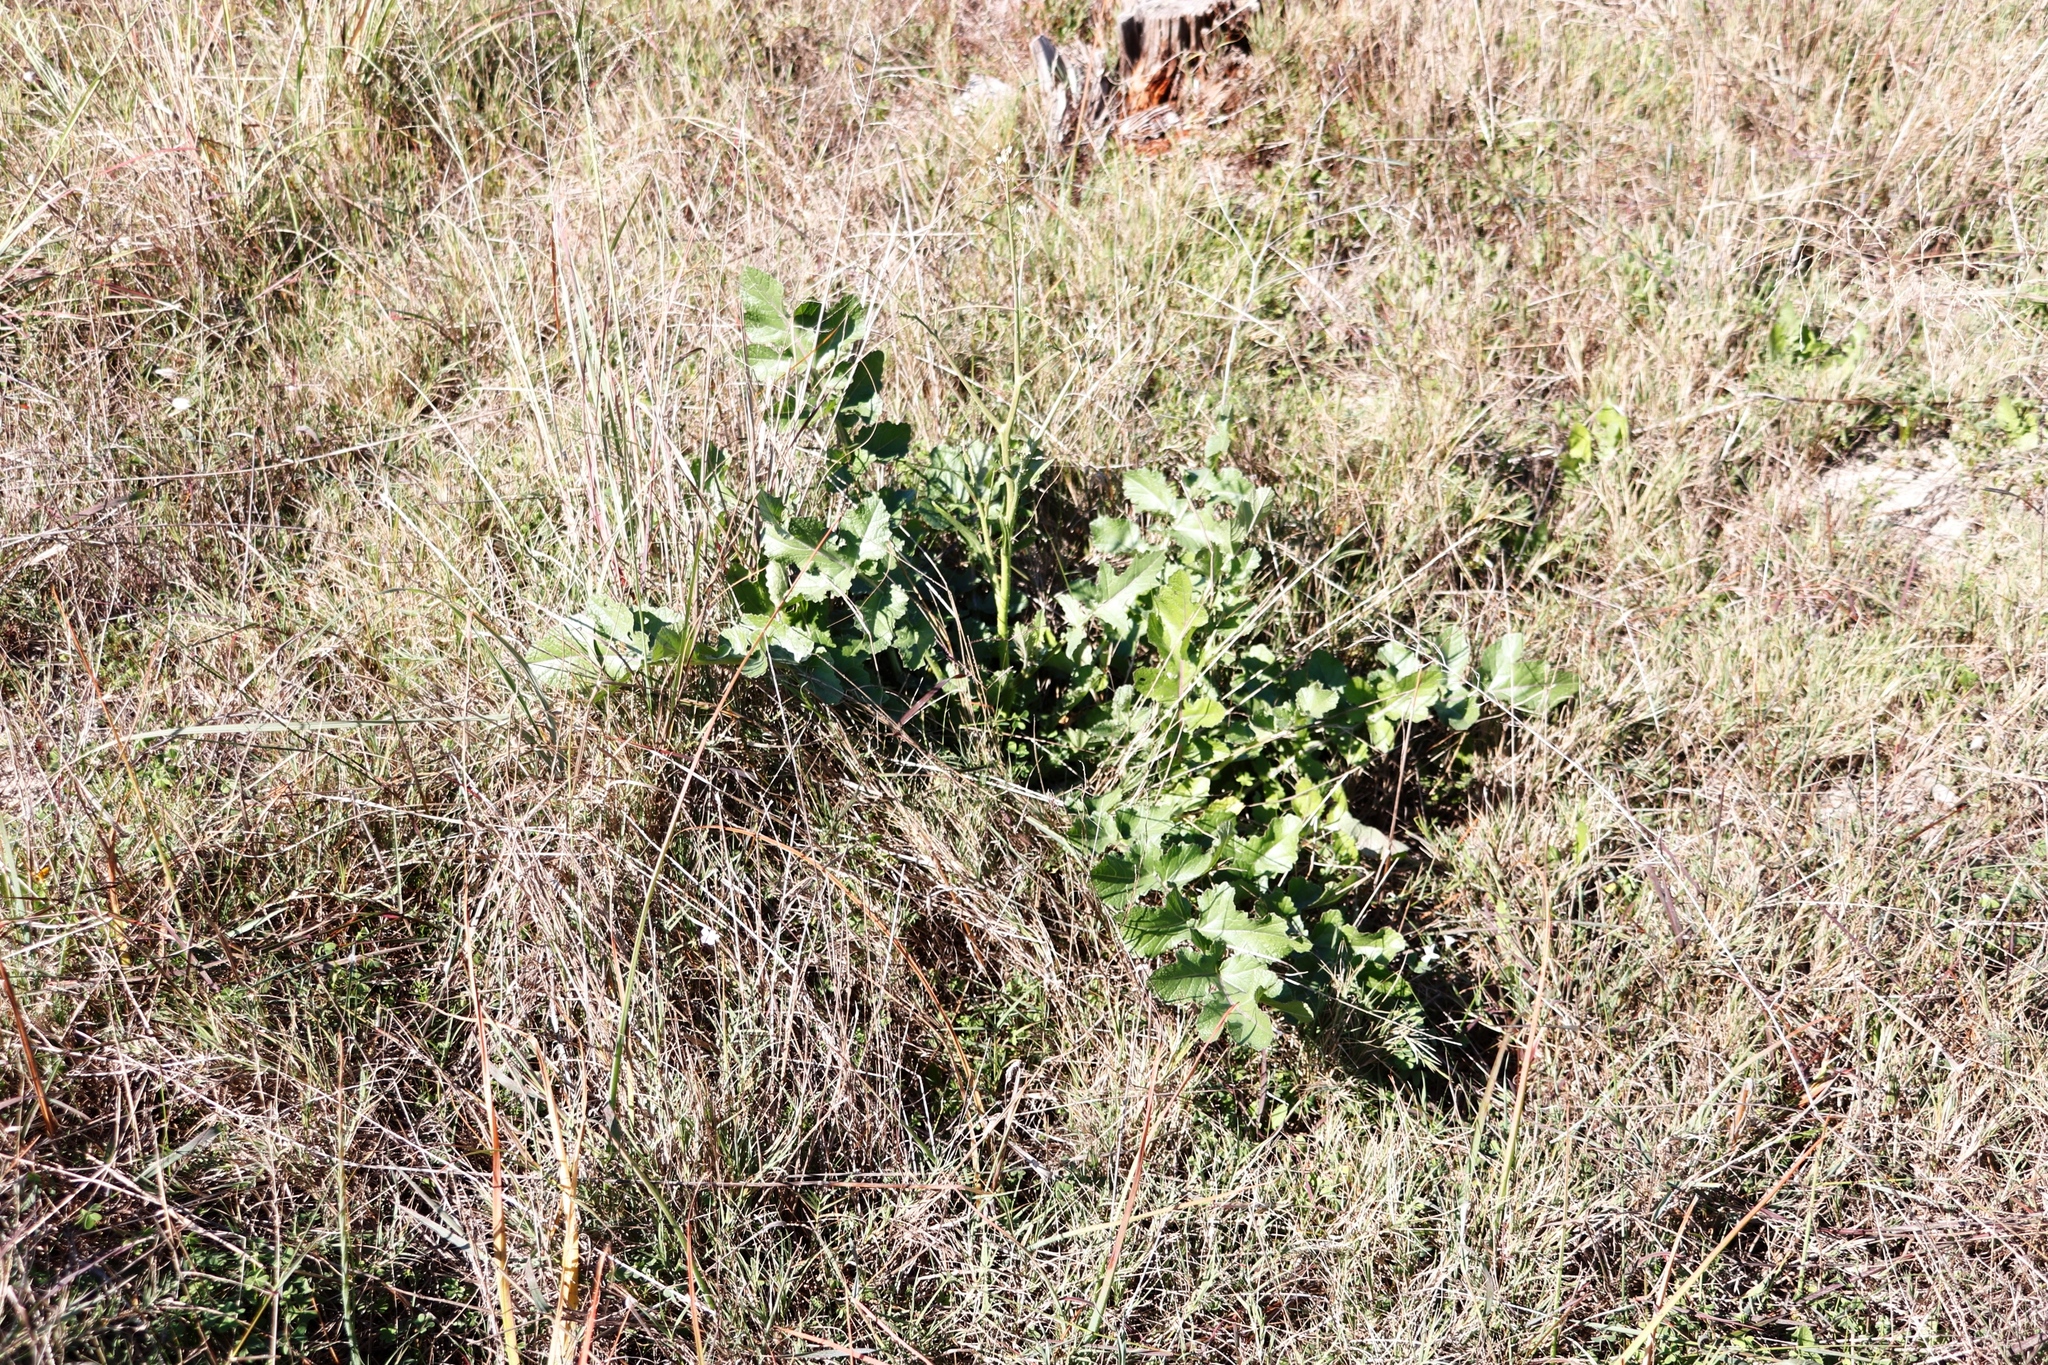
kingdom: Plantae
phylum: Tracheophyta
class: Magnoliopsida
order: Brassicales
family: Brassicaceae
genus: Brassica
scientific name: Brassica tournefortii
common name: Pale cabbage
